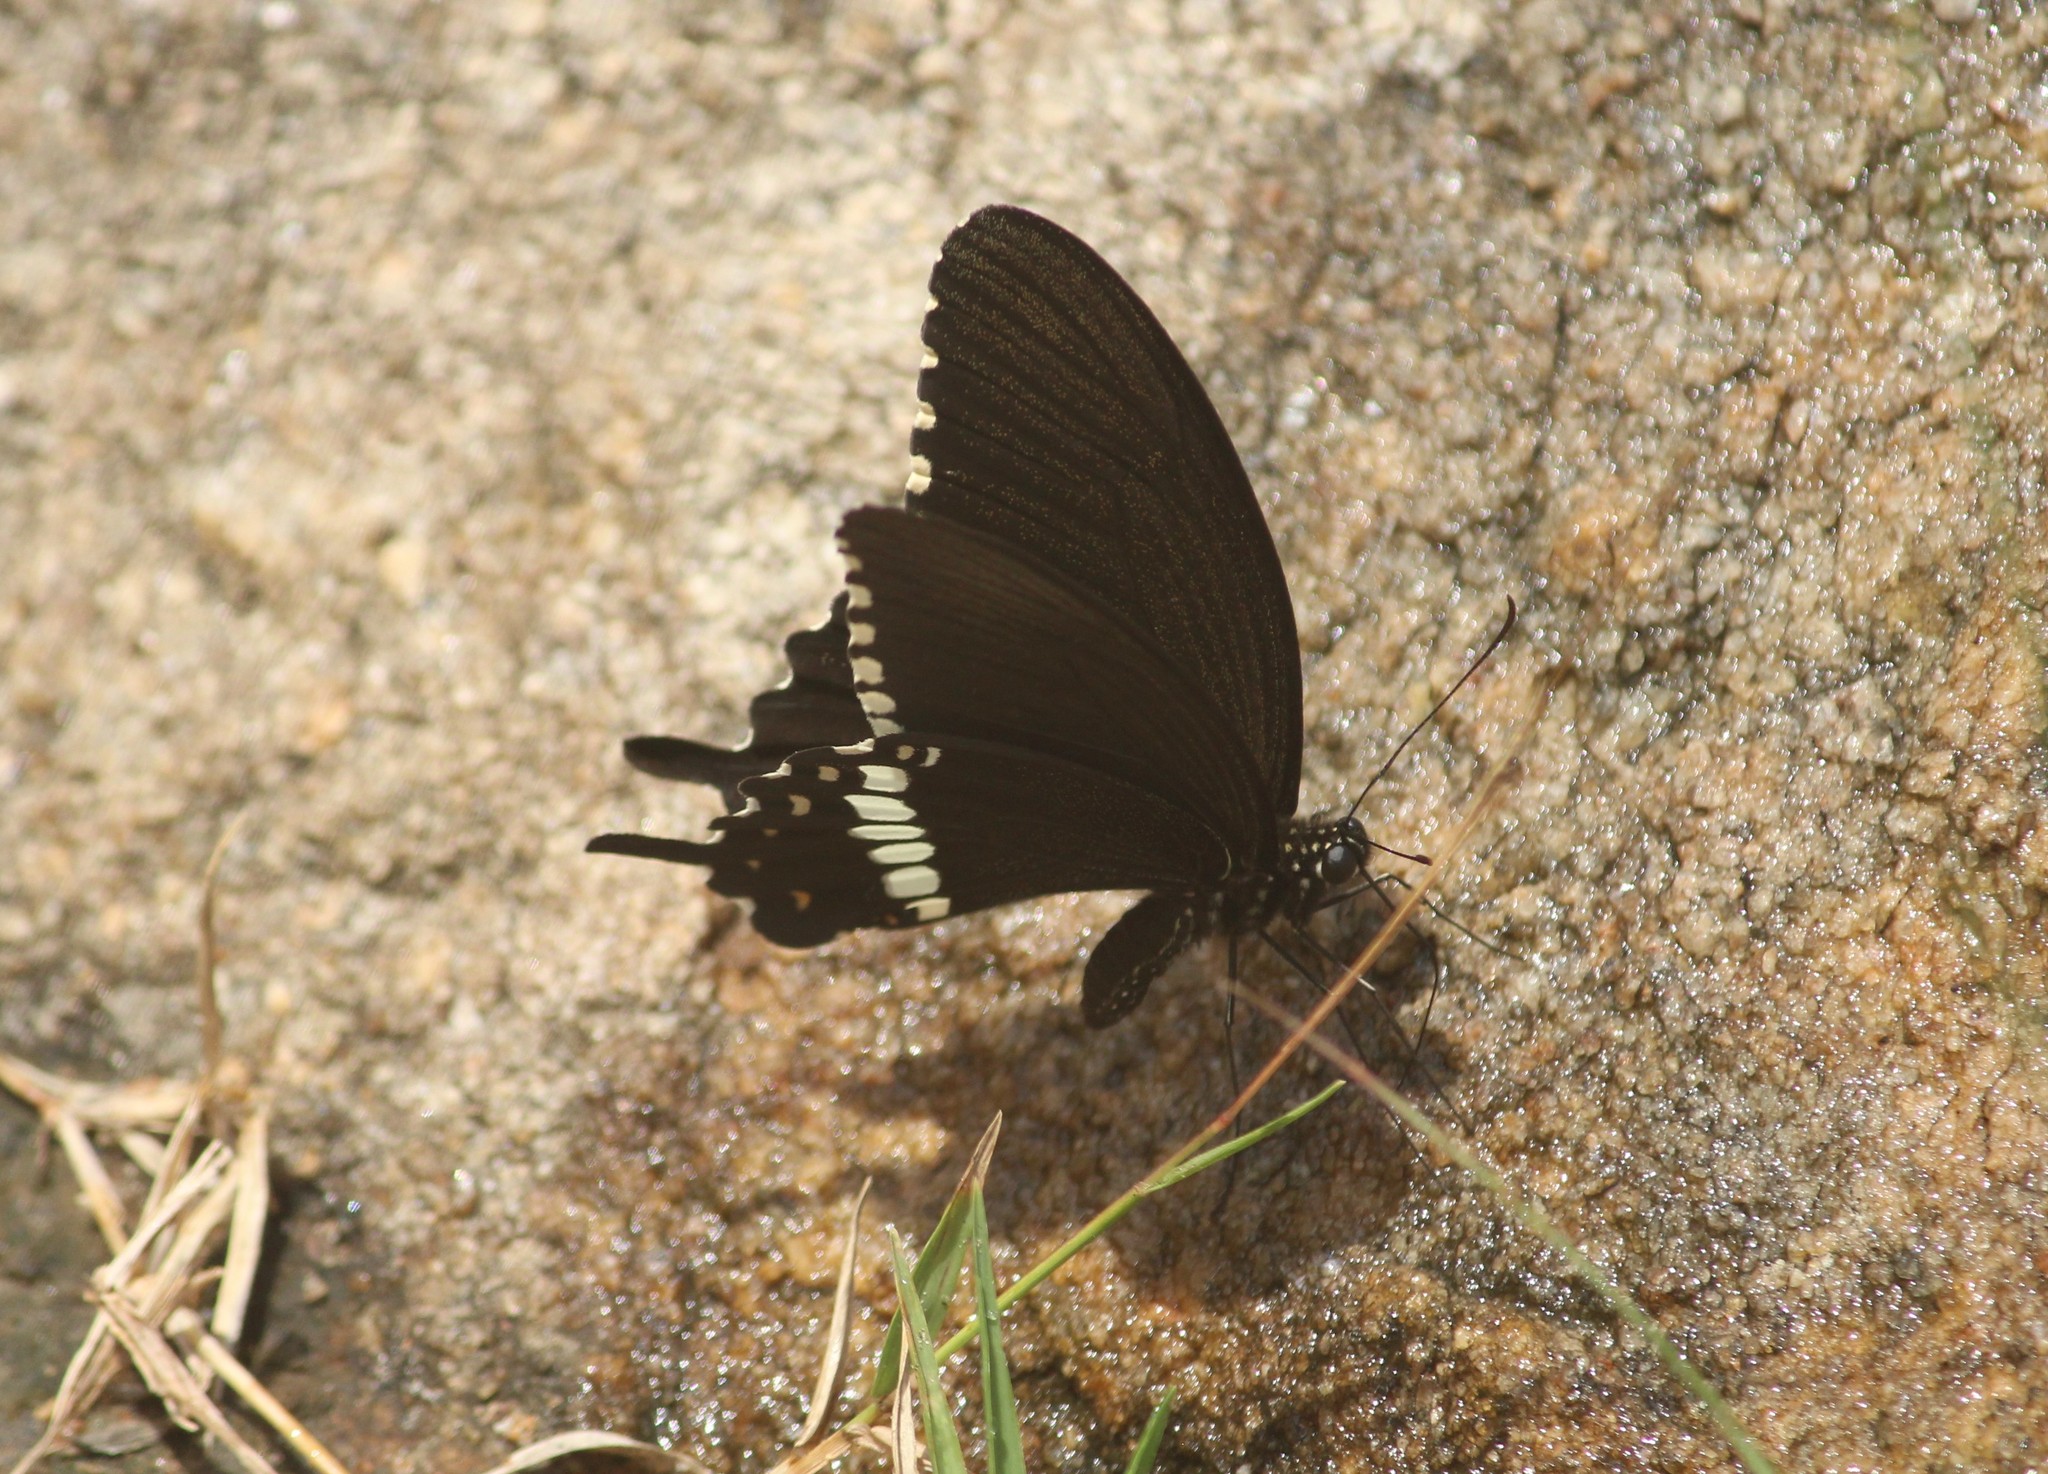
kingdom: Animalia
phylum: Arthropoda
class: Insecta
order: Lepidoptera
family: Papilionidae
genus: Papilio
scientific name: Papilio polytes
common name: Common mormon
